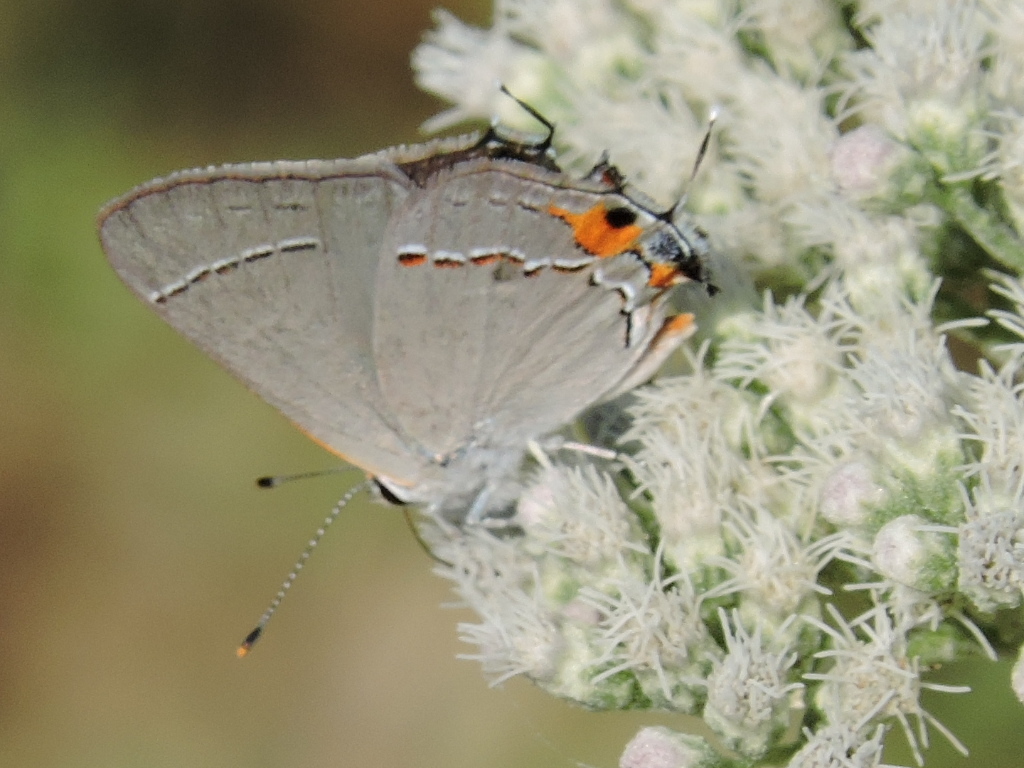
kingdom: Animalia
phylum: Arthropoda
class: Insecta
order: Lepidoptera
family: Lycaenidae
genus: Strymon
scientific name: Strymon melinus
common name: Gray hairstreak
